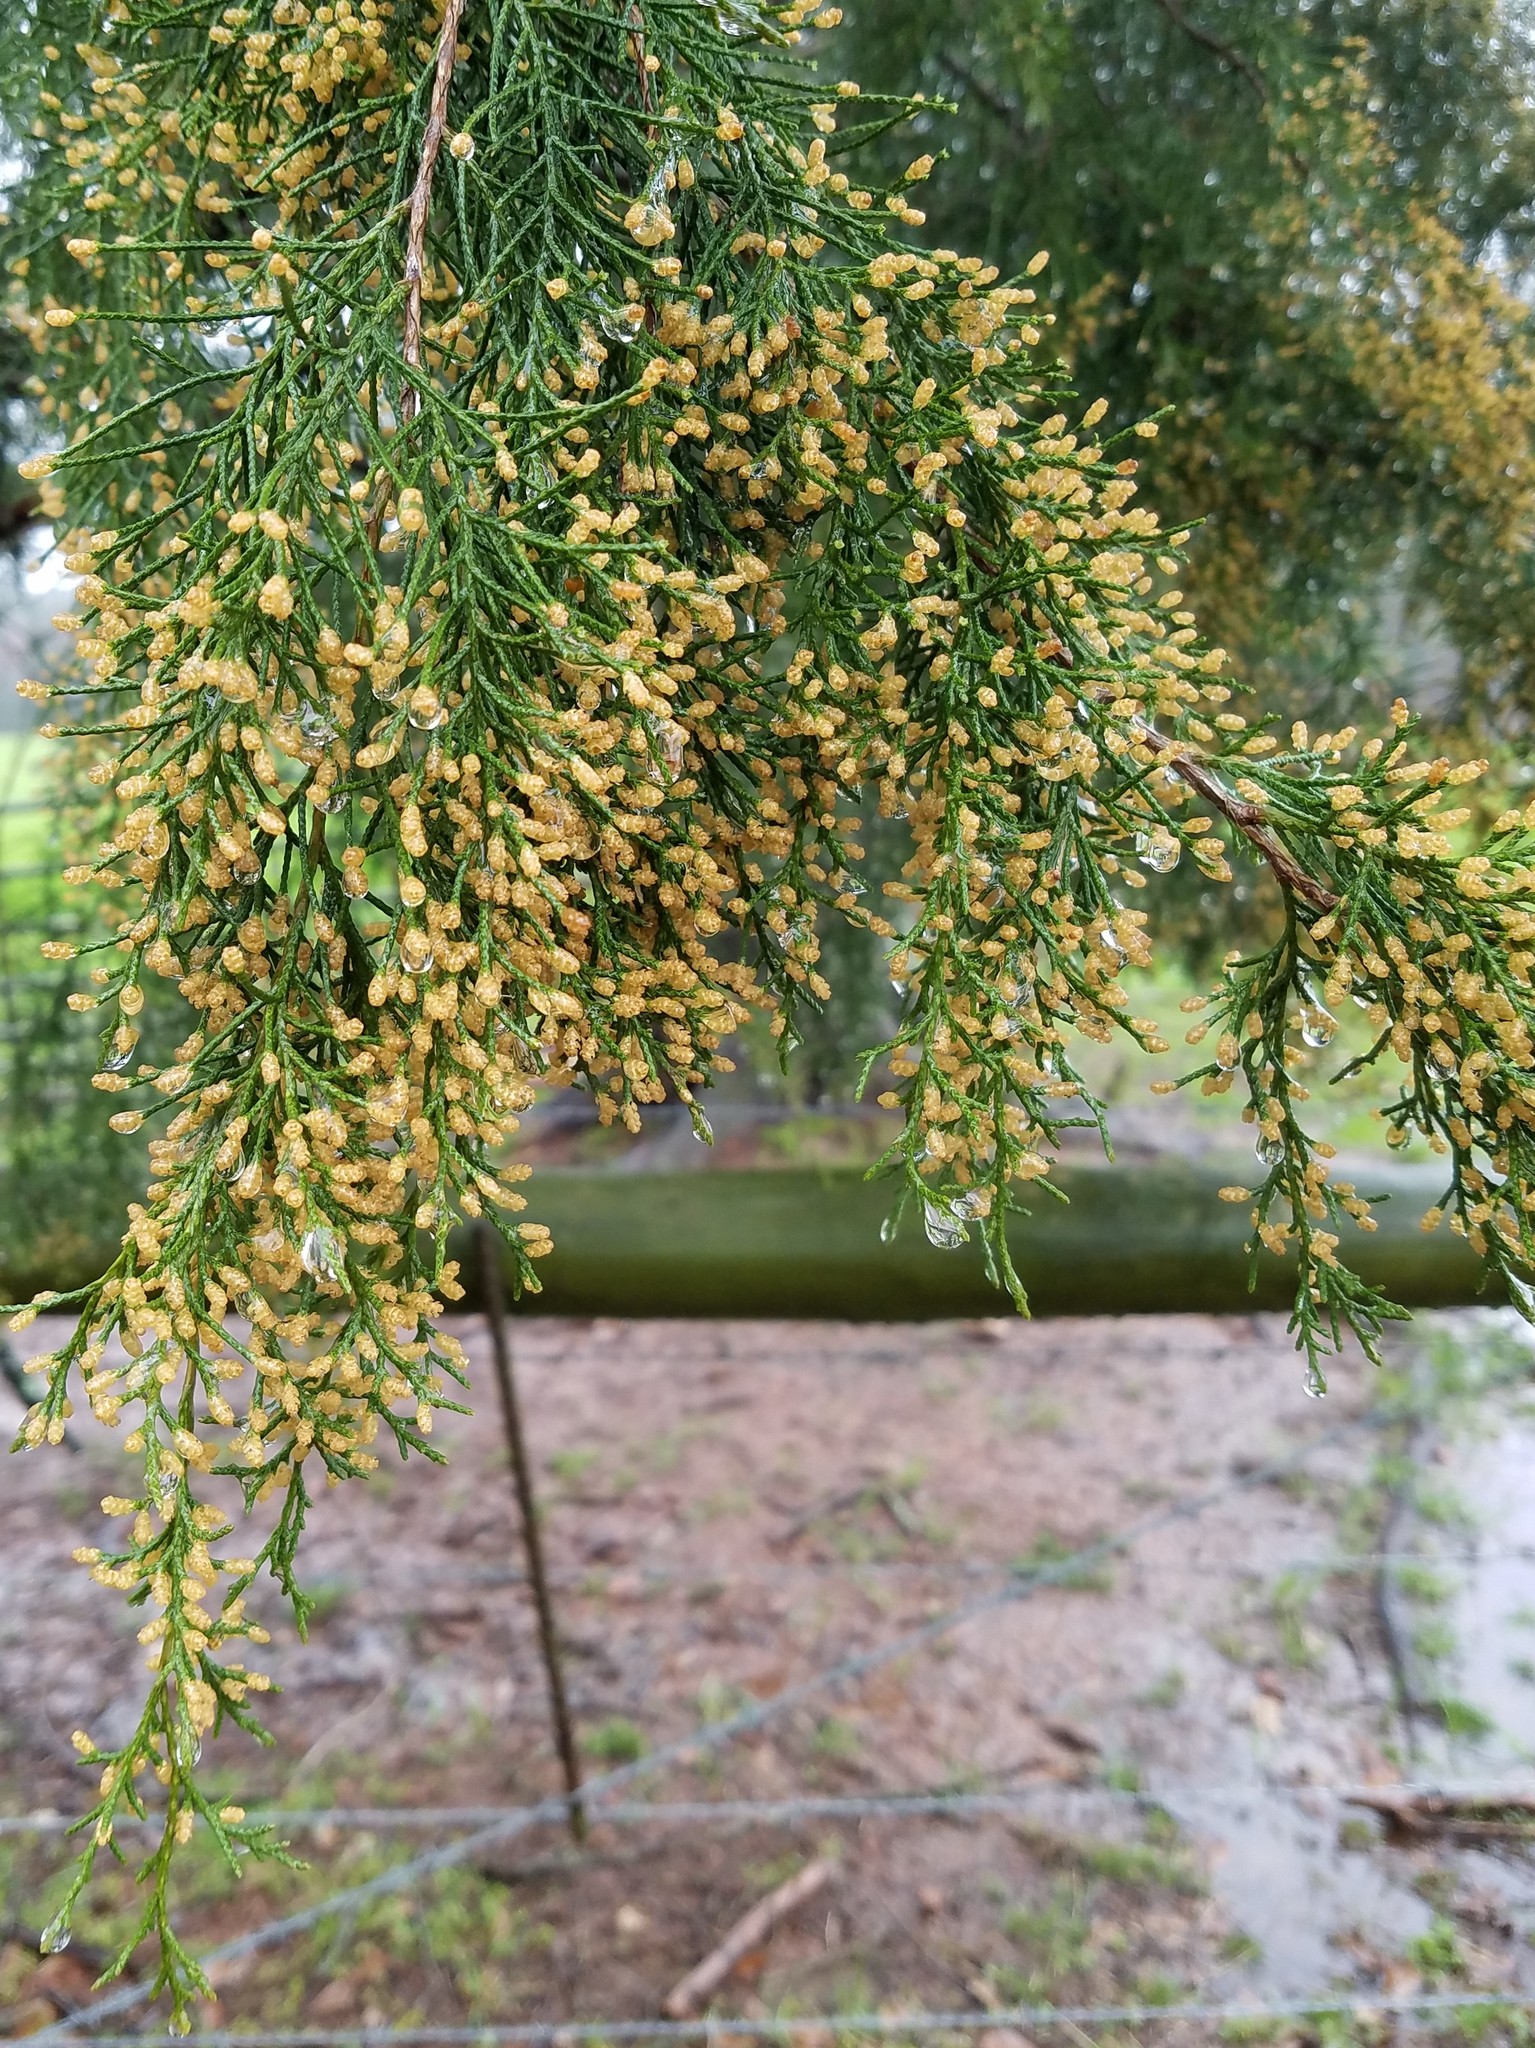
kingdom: Plantae
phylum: Tracheophyta
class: Pinopsida
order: Pinales
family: Cupressaceae
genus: Juniperus
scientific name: Juniperus virginiana
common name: Red juniper
